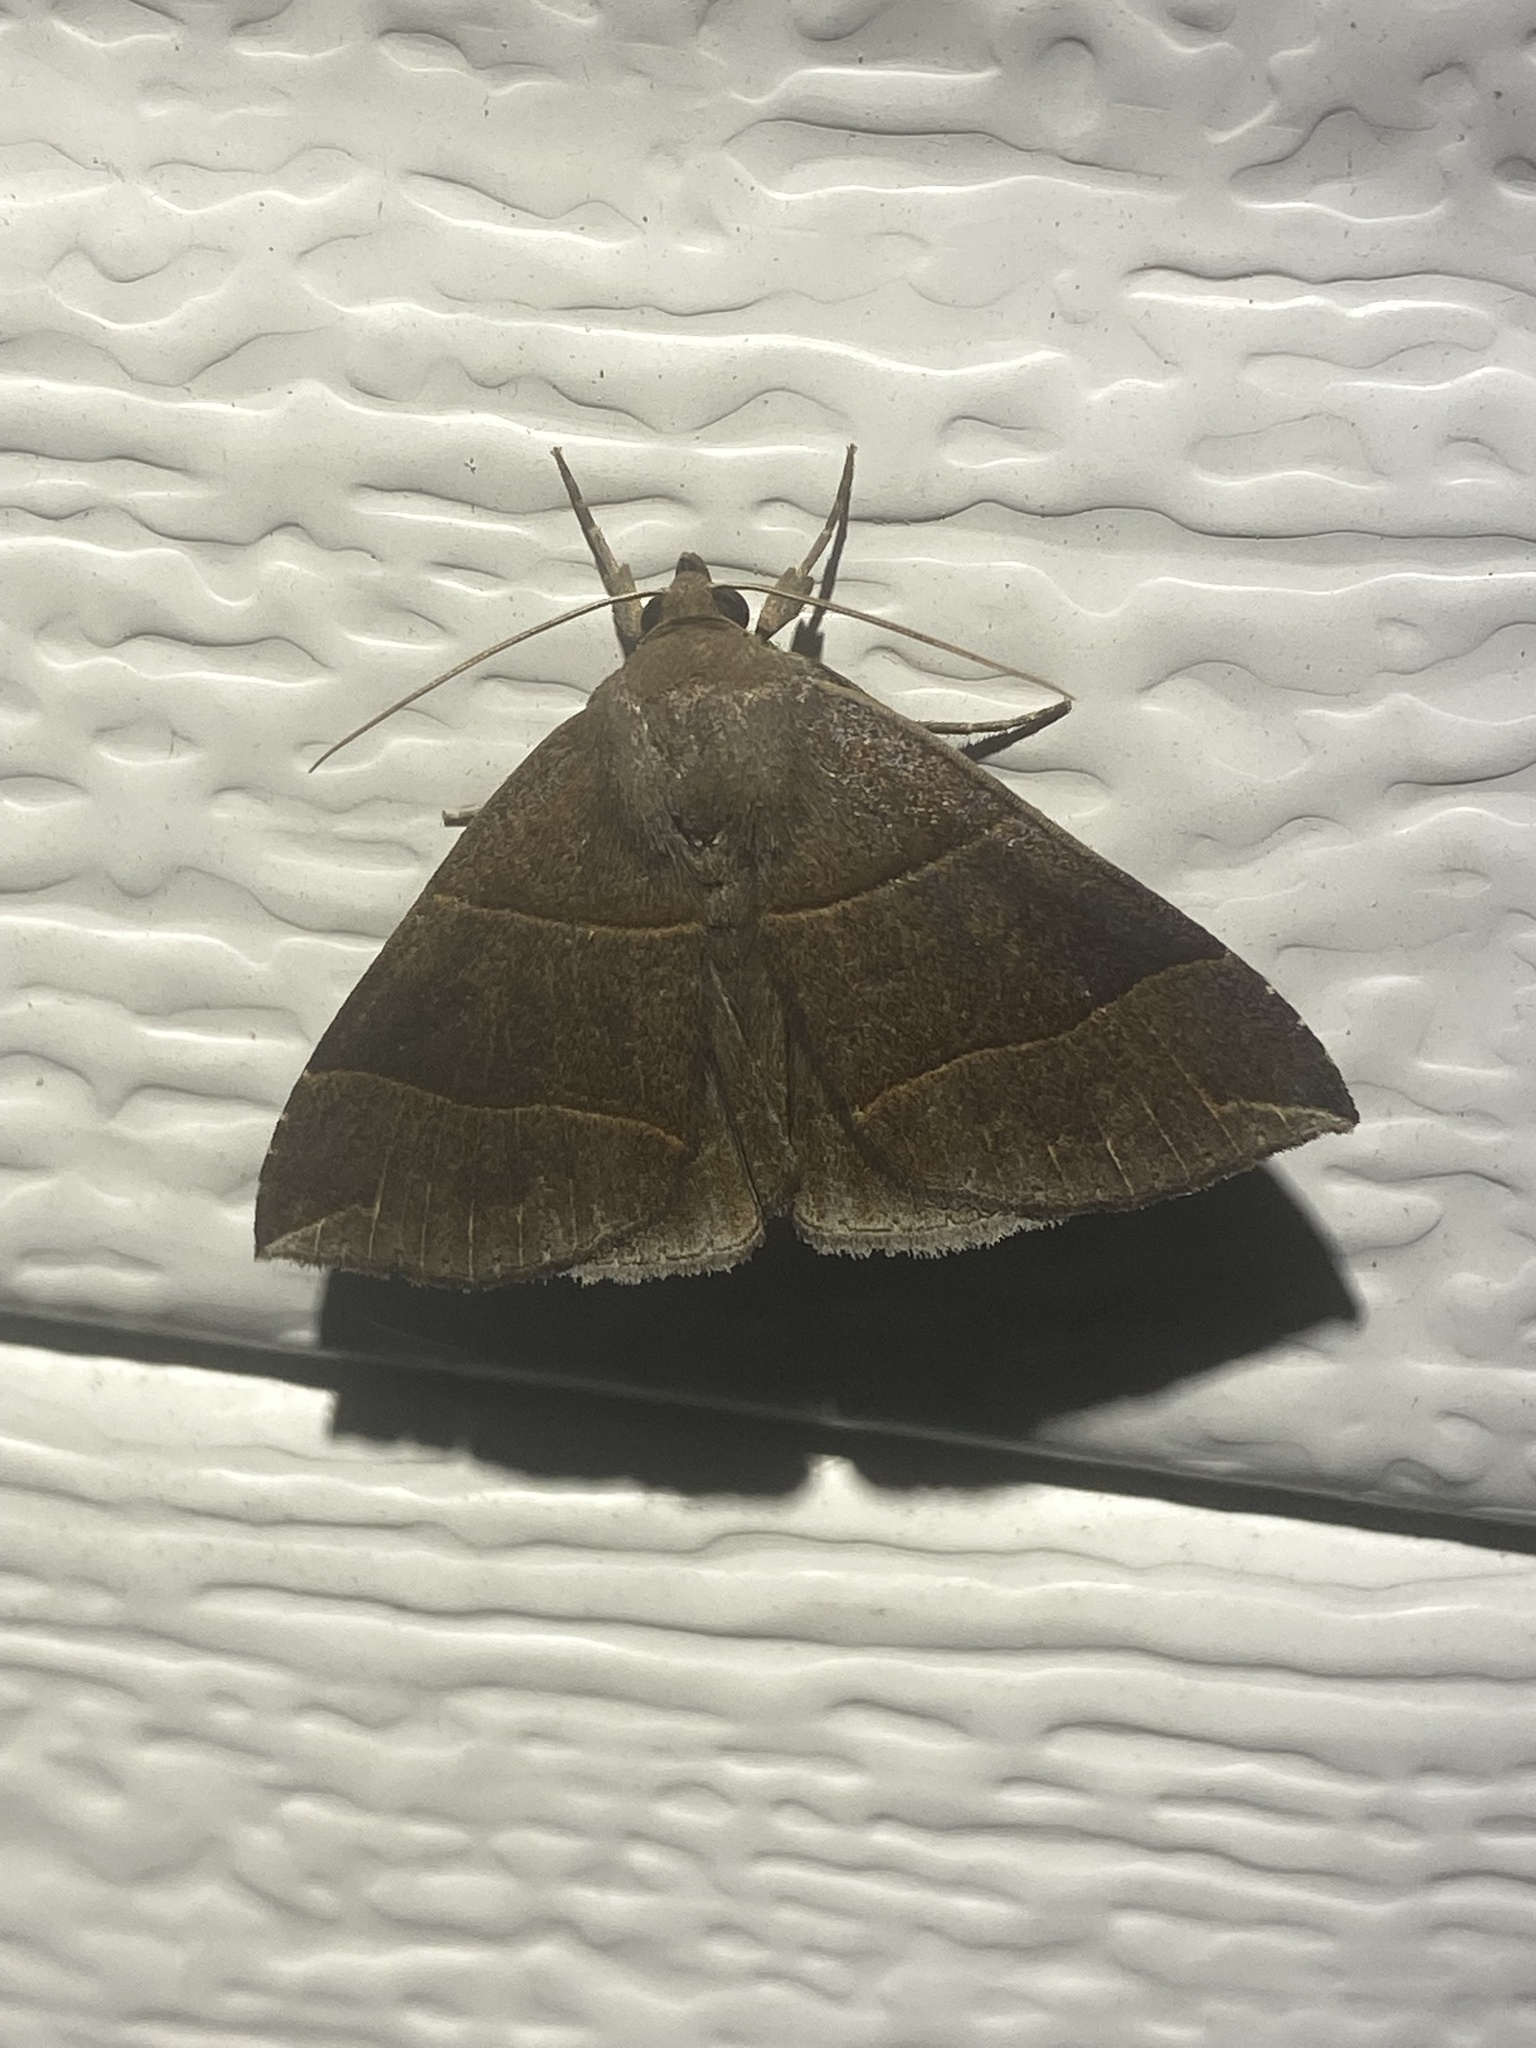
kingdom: Animalia
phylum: Arthropoda
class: Insecta
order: Lepidoptera
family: Erebidae
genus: Parallelia
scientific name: Parallelia bistriaris
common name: Maple looper moth
